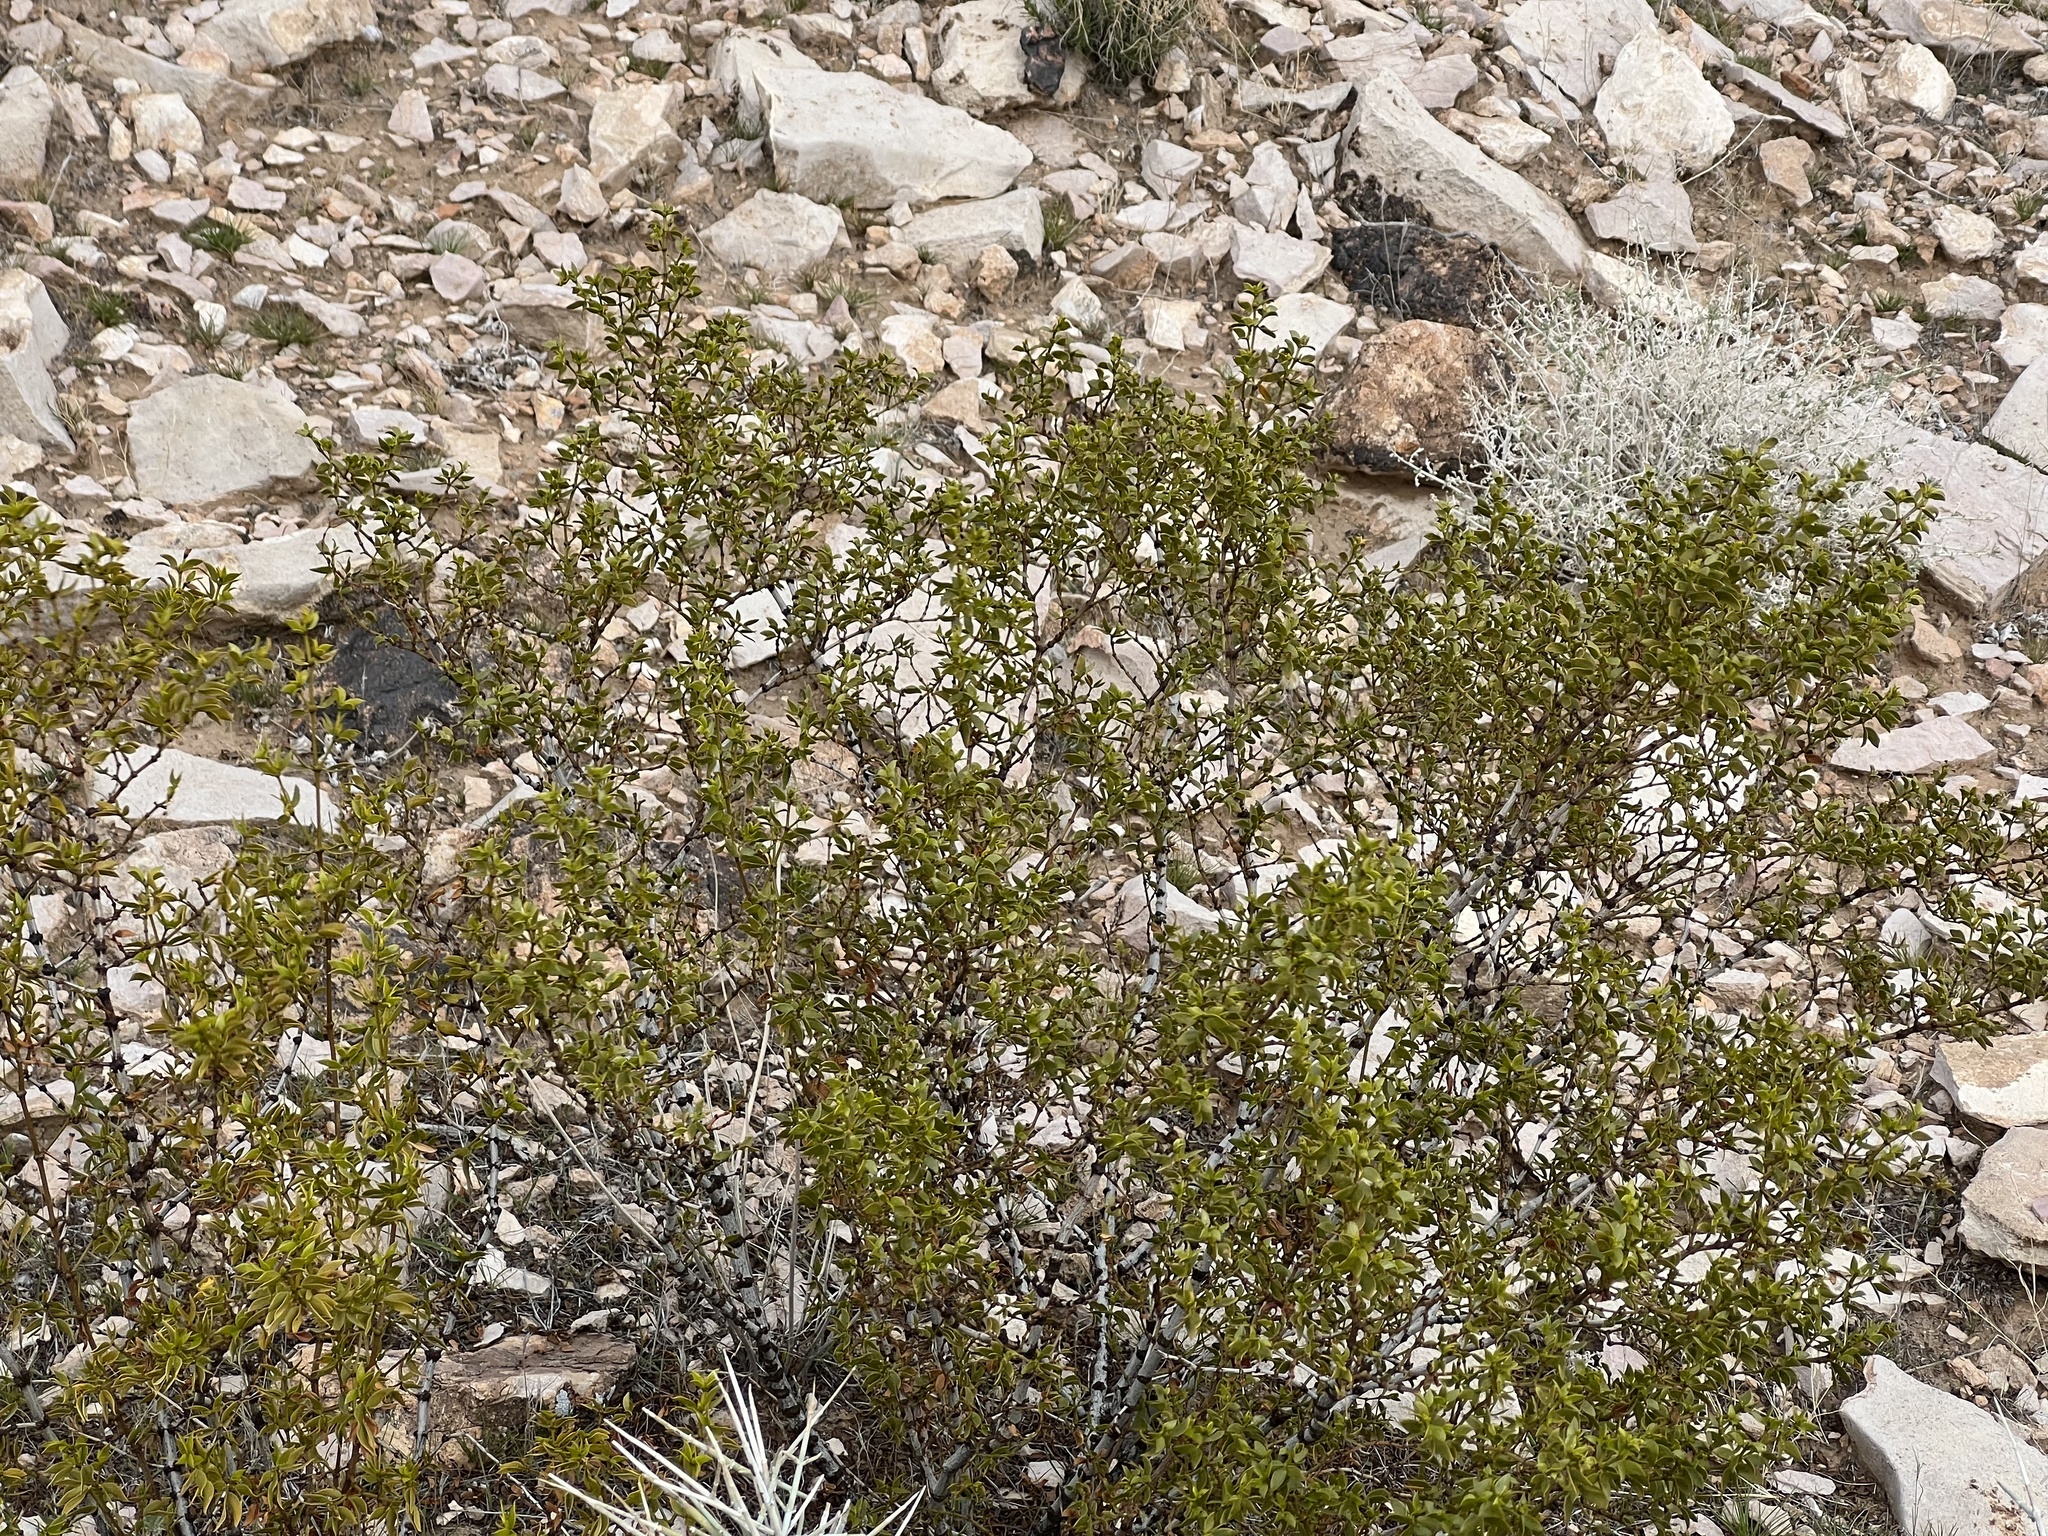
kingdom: Plantae
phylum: Tracheophyta
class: Magnoliopsida
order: Zygophyllales
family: Zygophyllaceae
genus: Larrea
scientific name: Larrea tridentata
